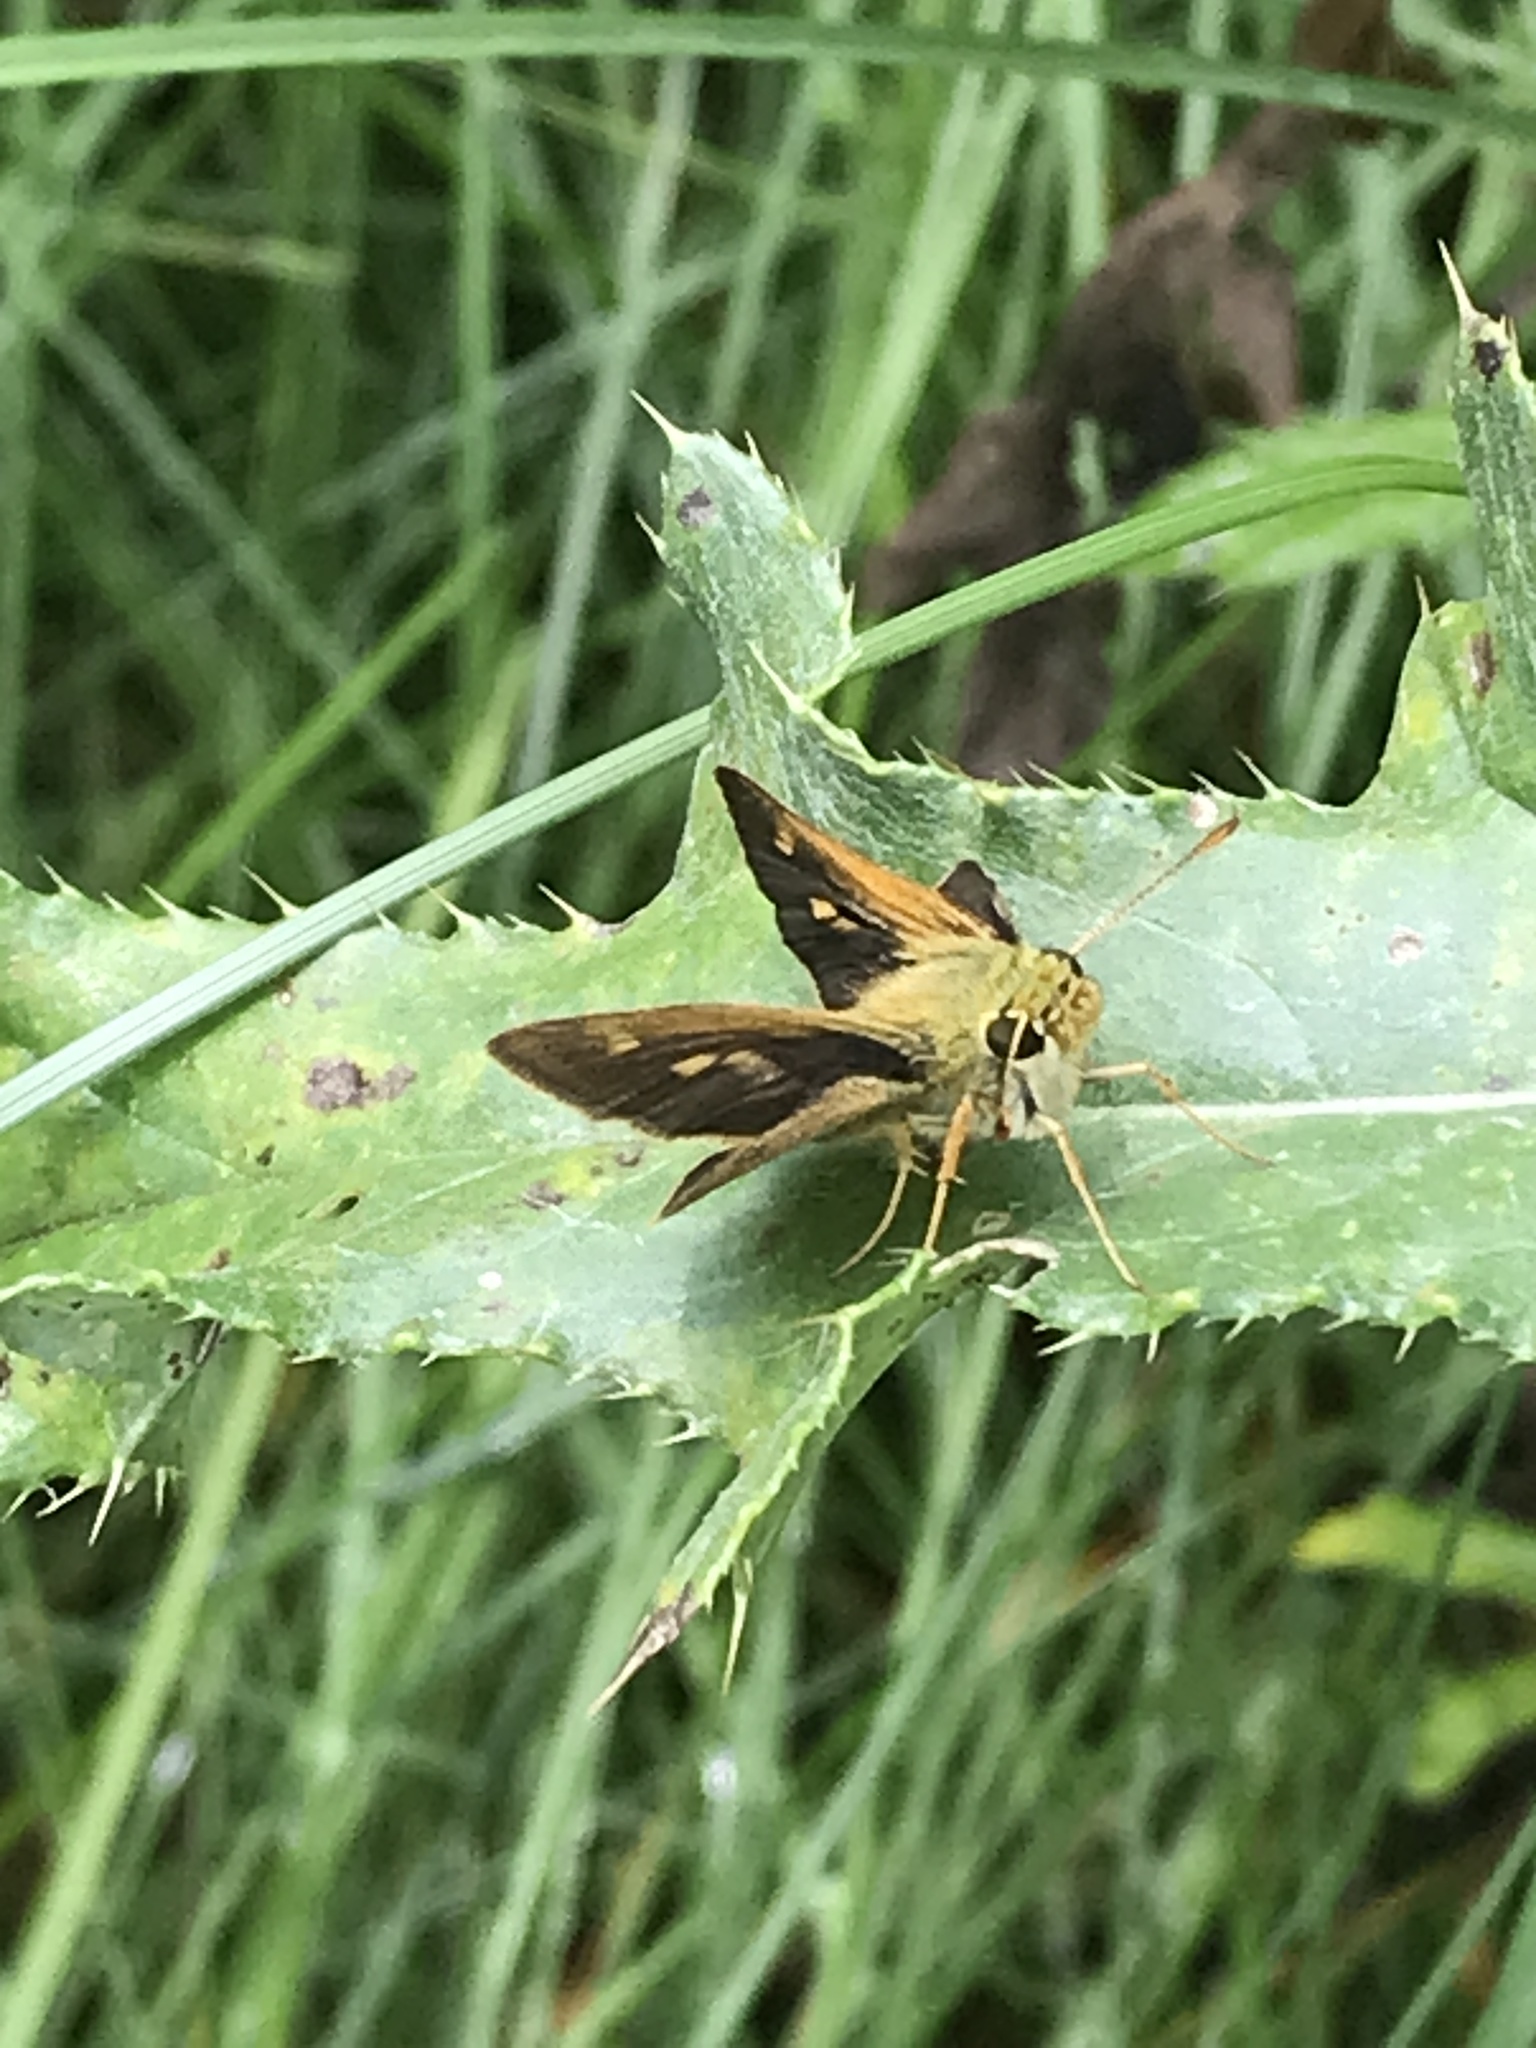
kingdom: Animalia
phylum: Arthropoda
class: Insecta
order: Lepidoptera
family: Hesperiidae
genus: Polites
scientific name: Polites egeremet
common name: Northern broken-dash
